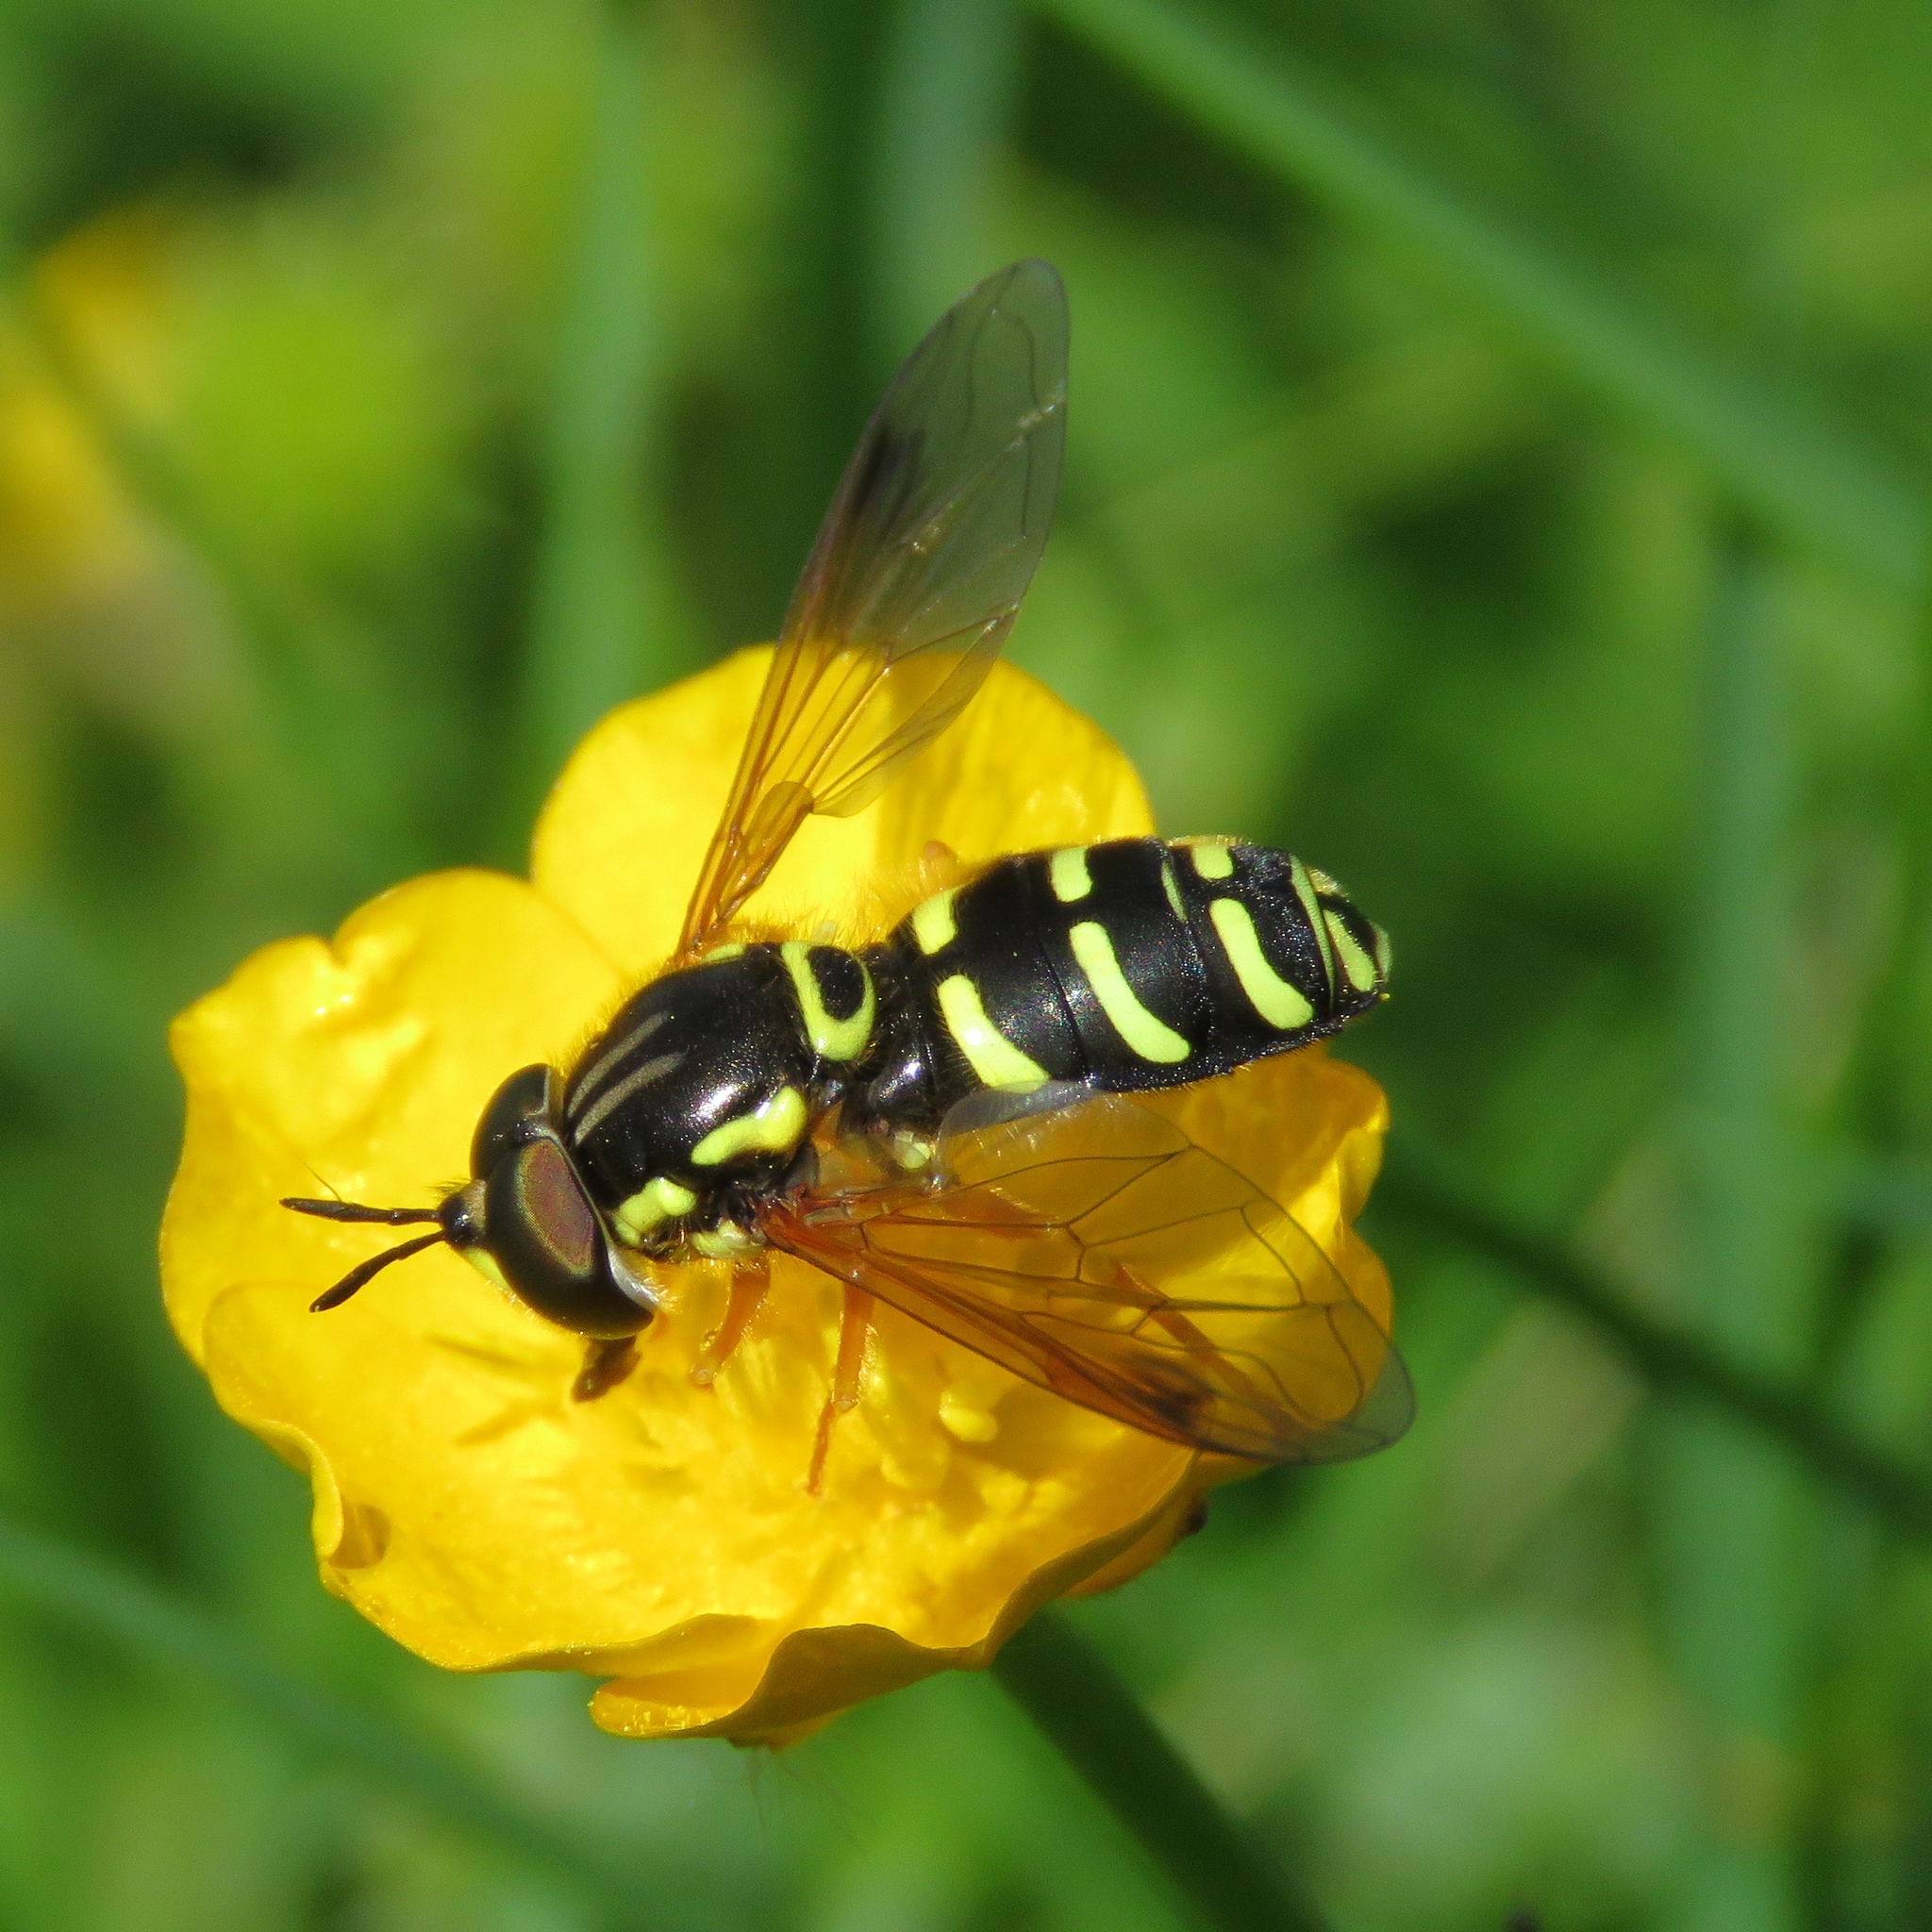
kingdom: Animalia
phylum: Arthropoda
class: Insecta
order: Diptera
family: Syrphidae
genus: Chrysotoxum
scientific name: Chrysotoxum festivum
